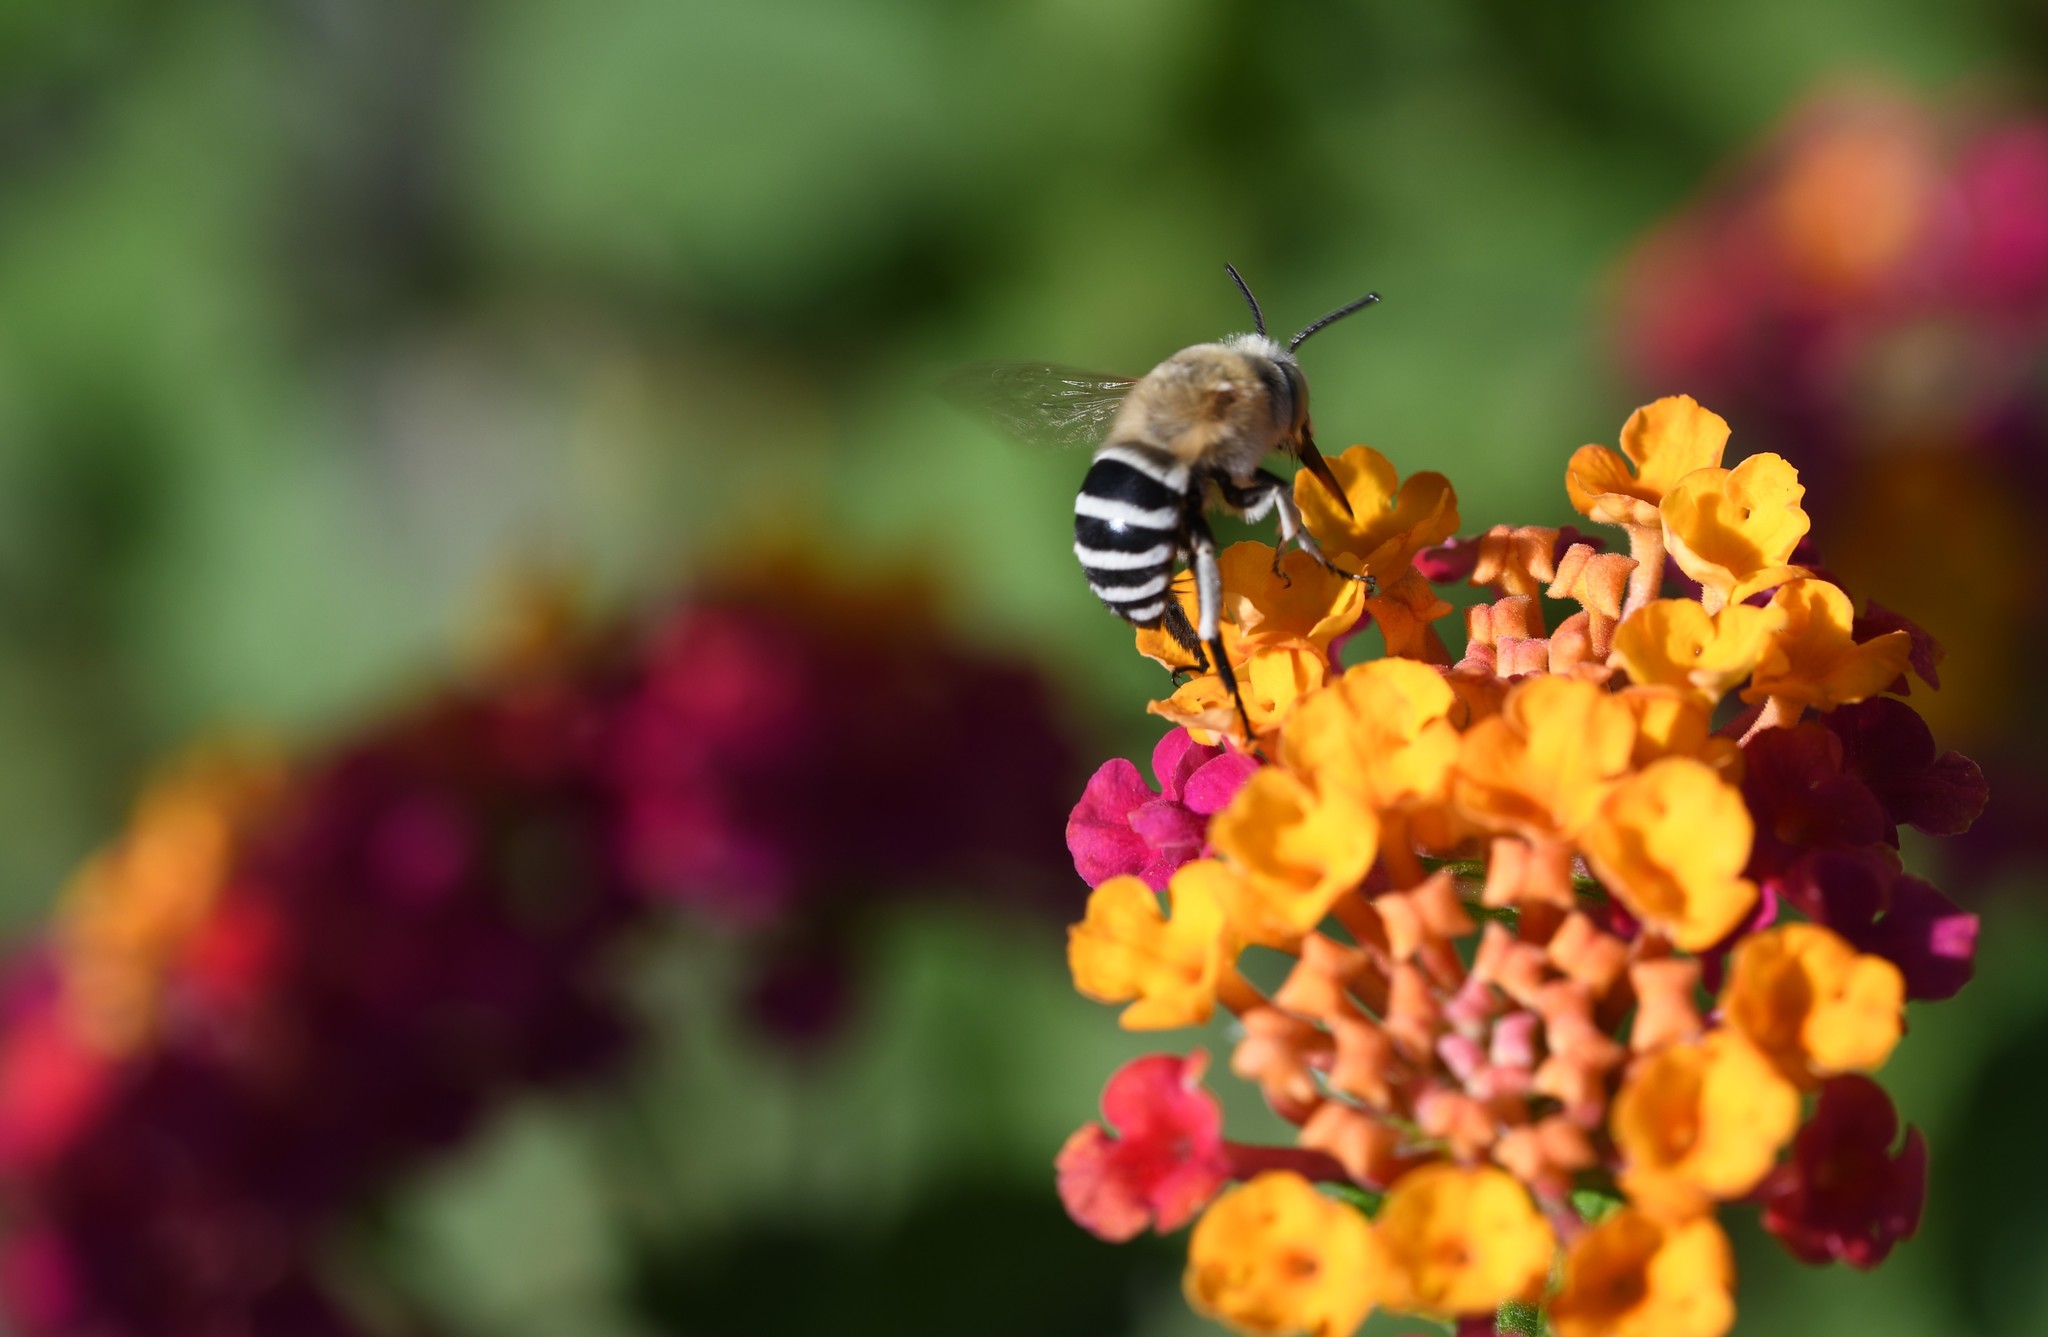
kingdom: Animalia
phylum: Arthropoda
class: Insecta
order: Hymenoptera
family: Apidae
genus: Amegilla
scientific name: Amegilla quadrifasciata
